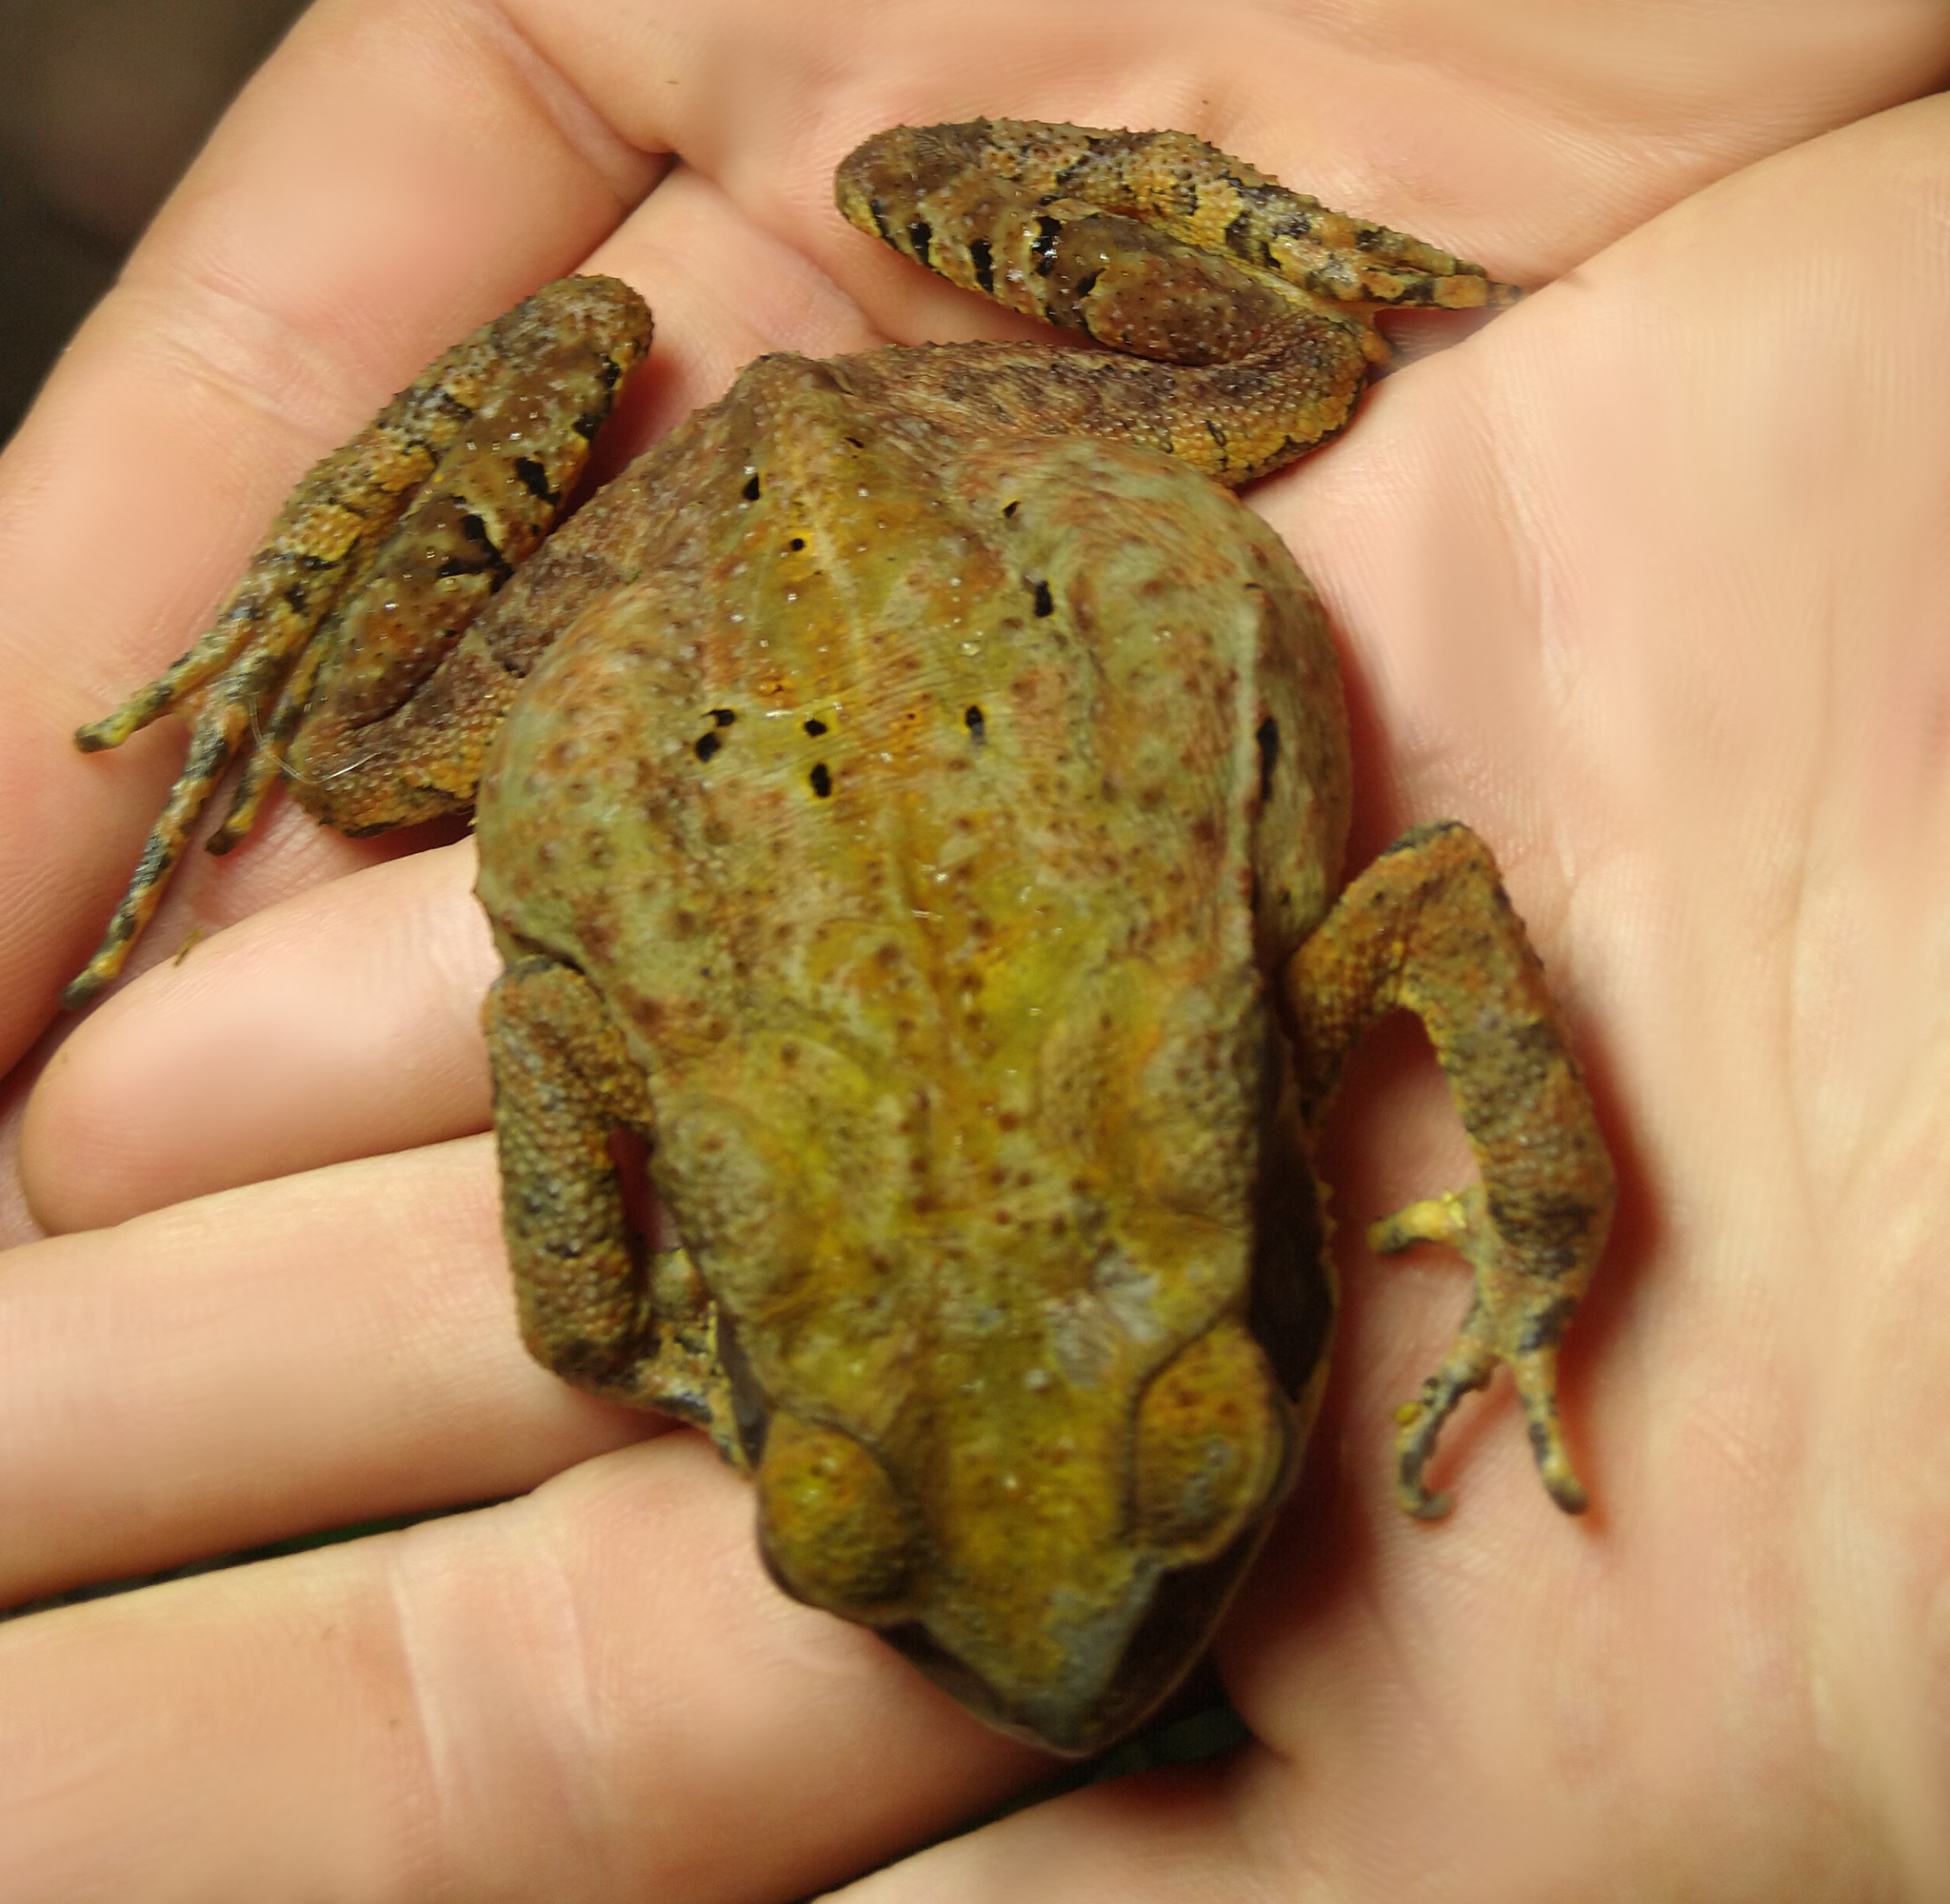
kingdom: Animalia
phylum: Chordata
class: Amphibia
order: Anura
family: Bufonidae
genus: Rhinella
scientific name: Rhinella ornata
